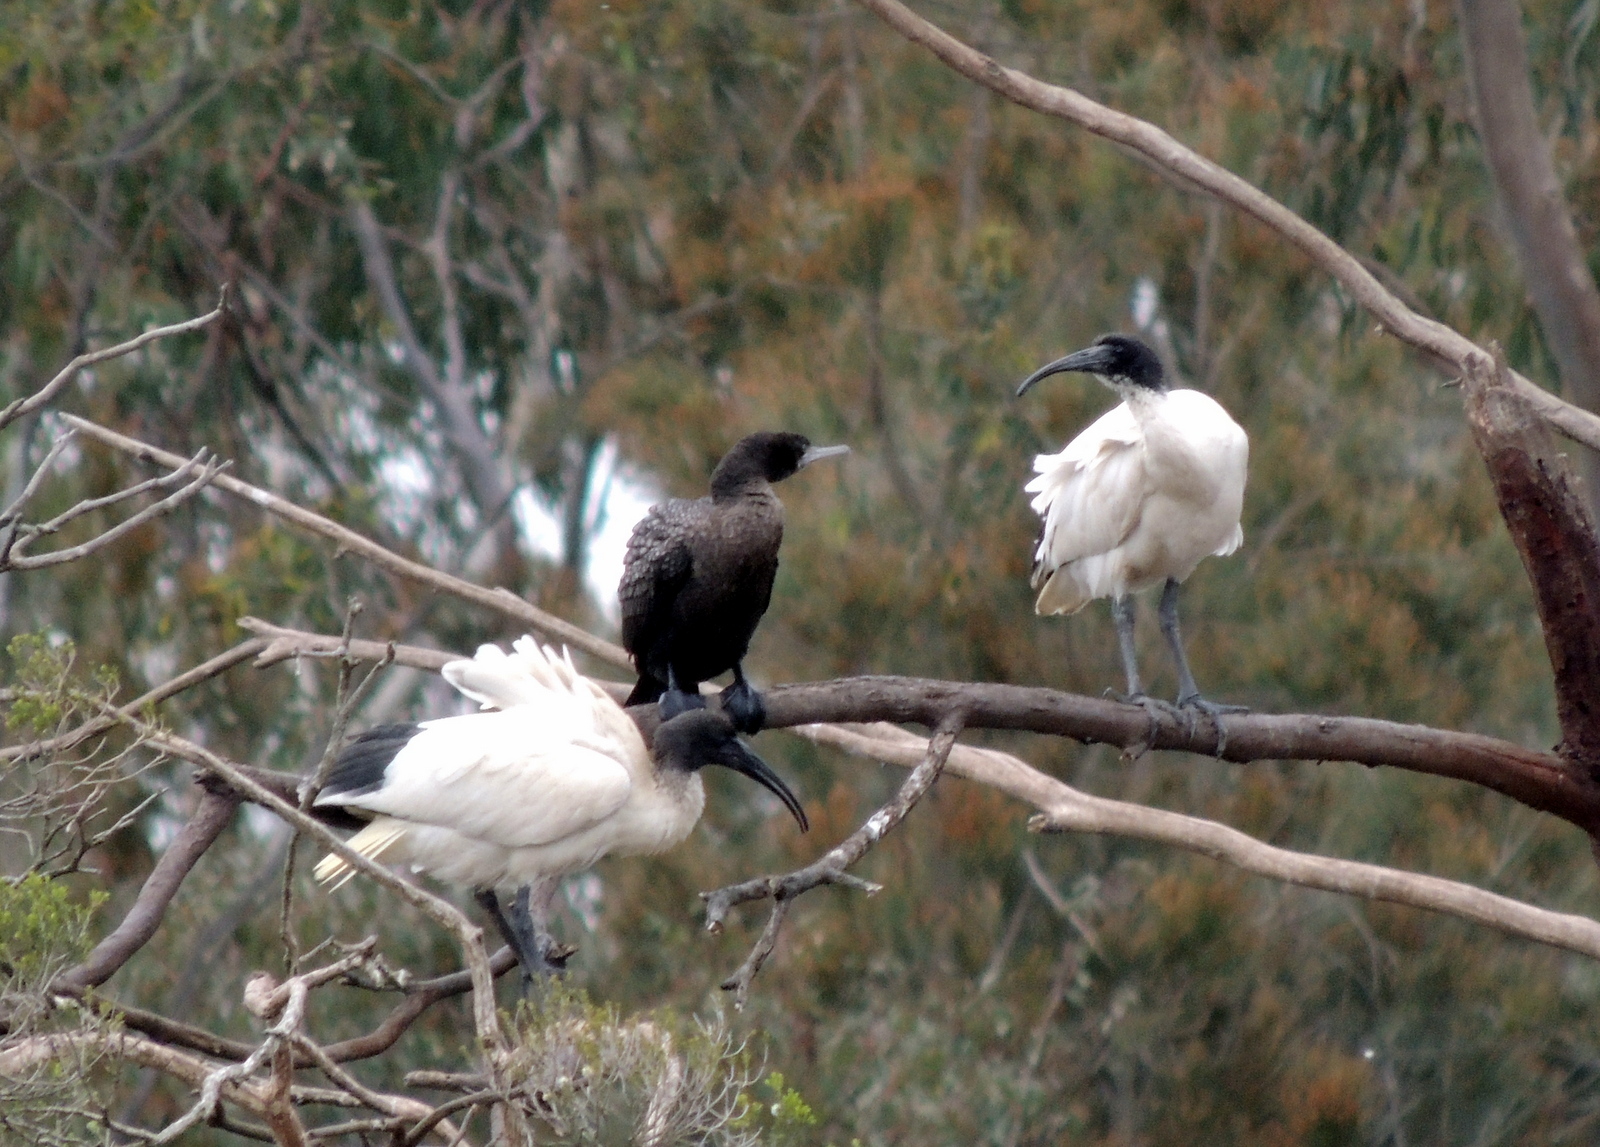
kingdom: Animalia
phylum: Chordata
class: Aves
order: Pelecaniformes
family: Threskiornithidae
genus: Threskiornis
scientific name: Threskiornis molucca
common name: Australian white ibis
